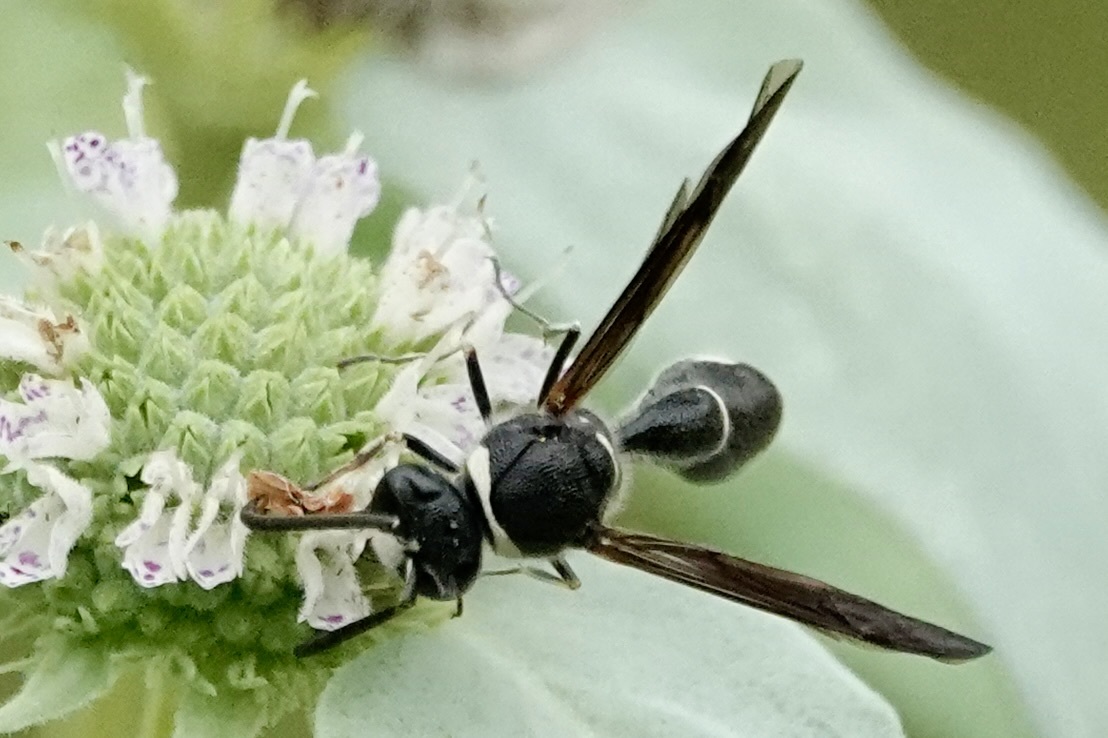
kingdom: Animalia
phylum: Arthropoda
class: Insecta
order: Hymenoptera
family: Vespidae
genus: Eumenes
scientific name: Eumenes fraternus
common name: Fraternal potter wasp
